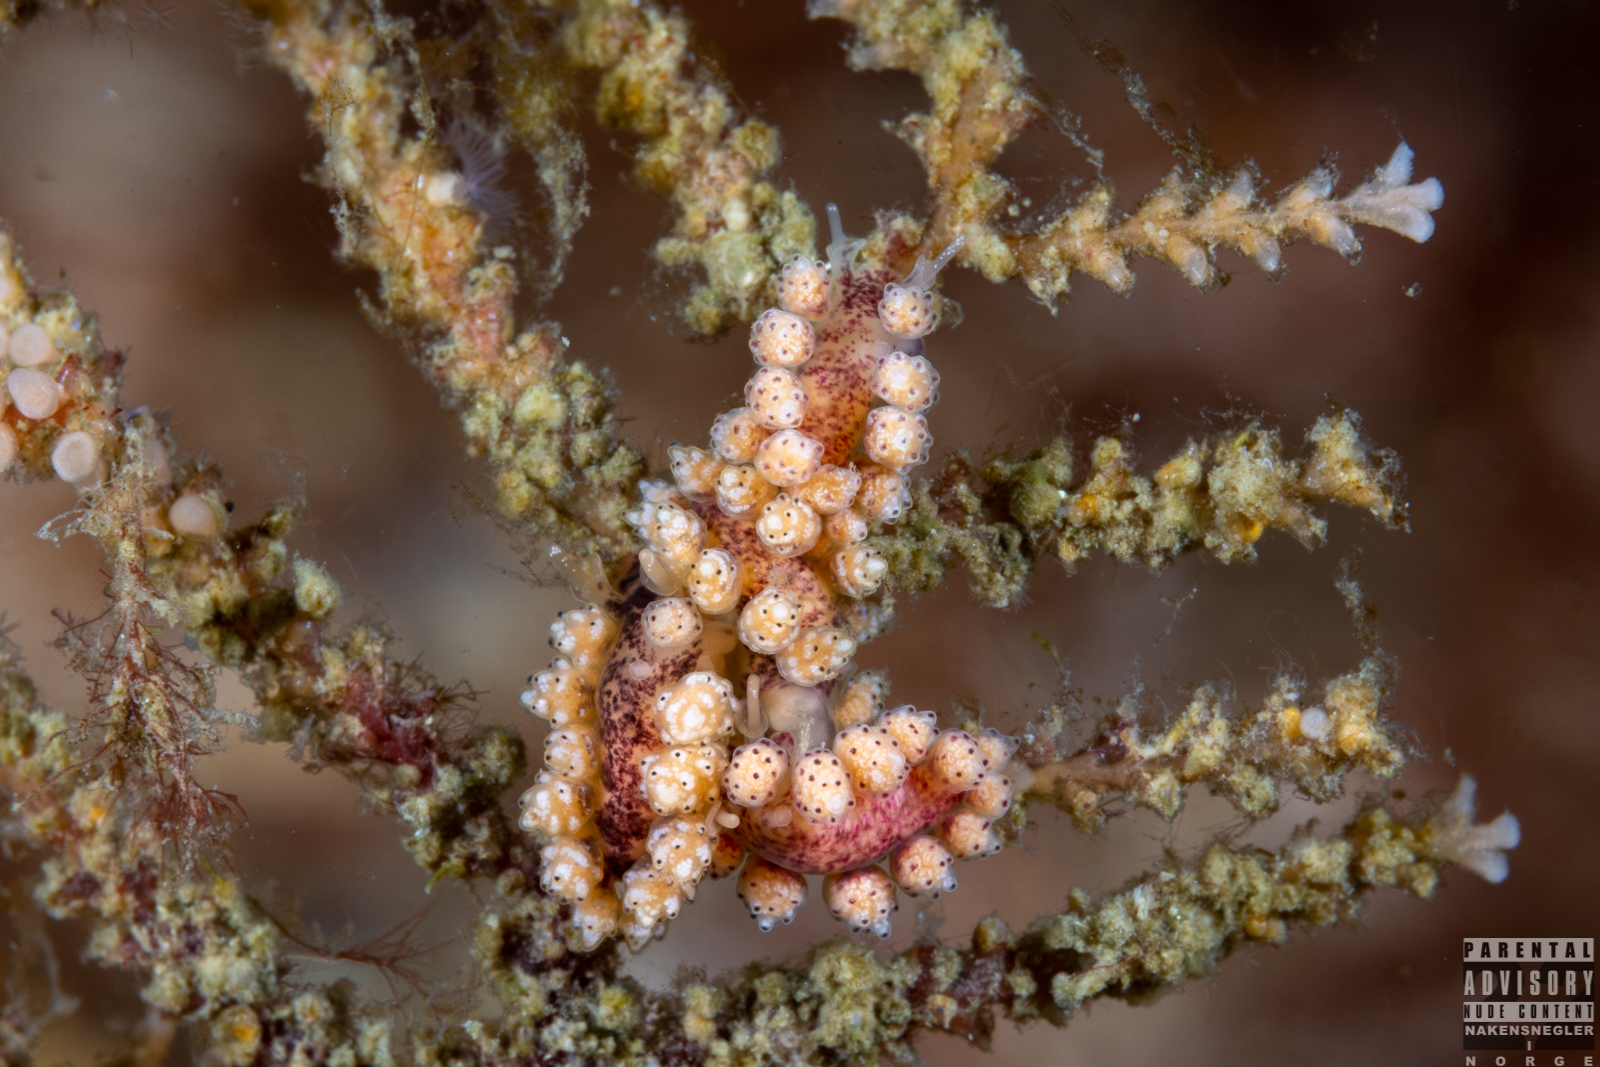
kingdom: Animalia
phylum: Mollusca
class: Gastropoda
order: Nudibranchia
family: Dotidae
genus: Doto
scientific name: Doto coronata
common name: Coronate doto
